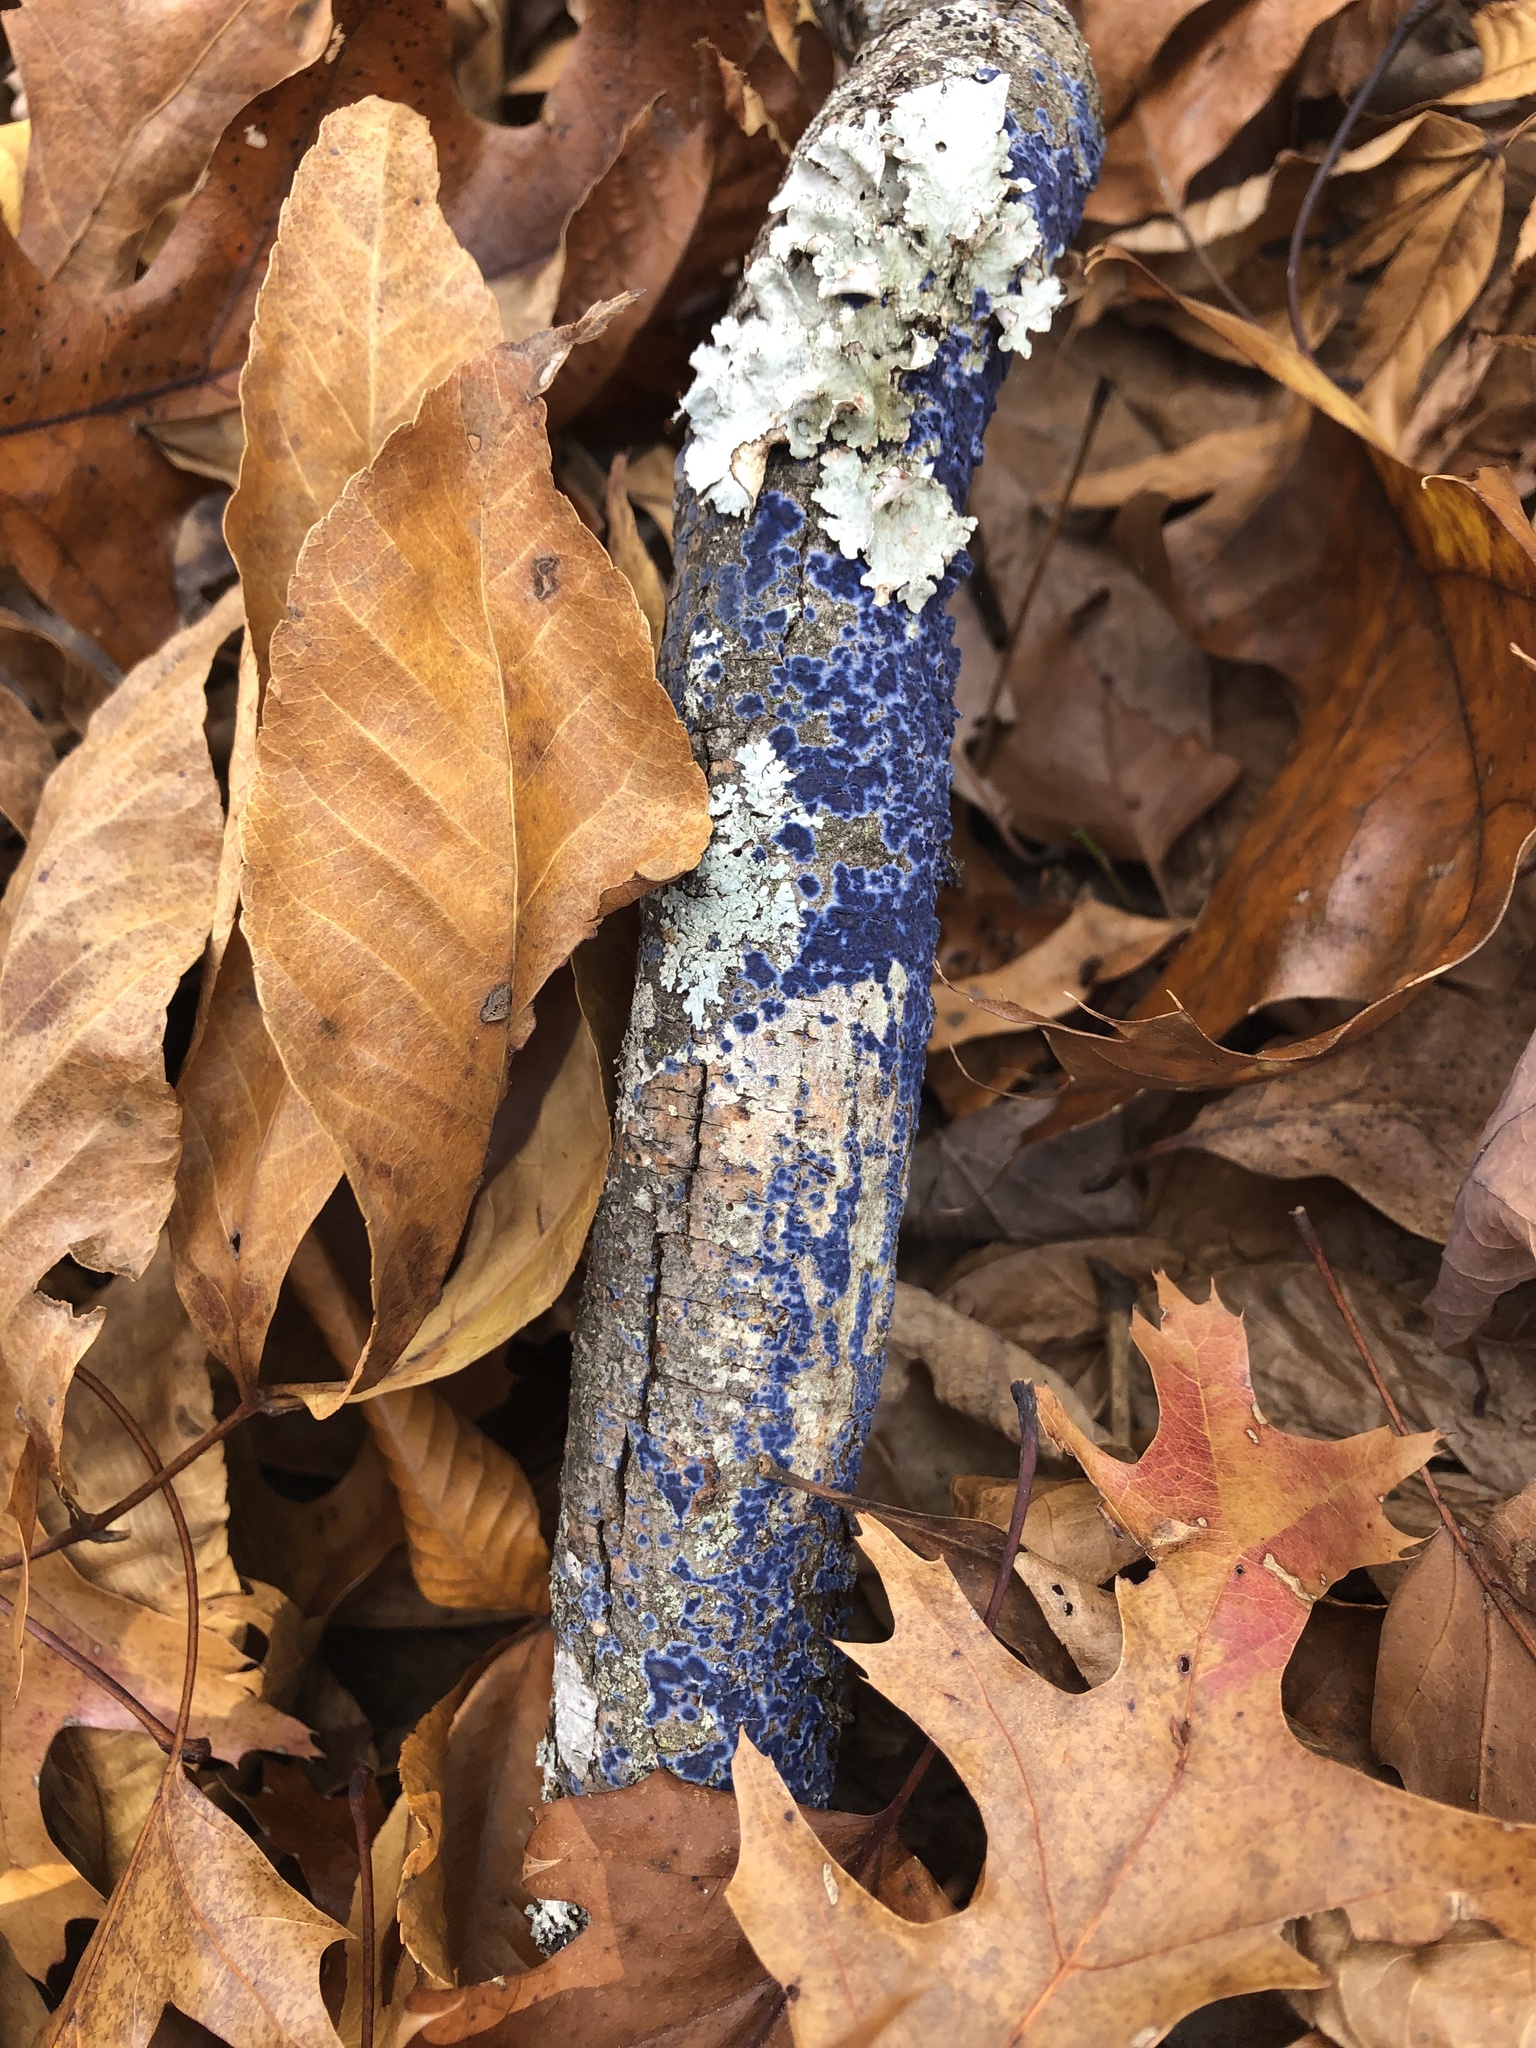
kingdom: Fungi
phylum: Basidiomycota
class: Agaricomycetes
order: Polyporales
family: Phanerochaetaceae
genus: Terana
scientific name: Terana coerulea
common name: Cobalt crust
